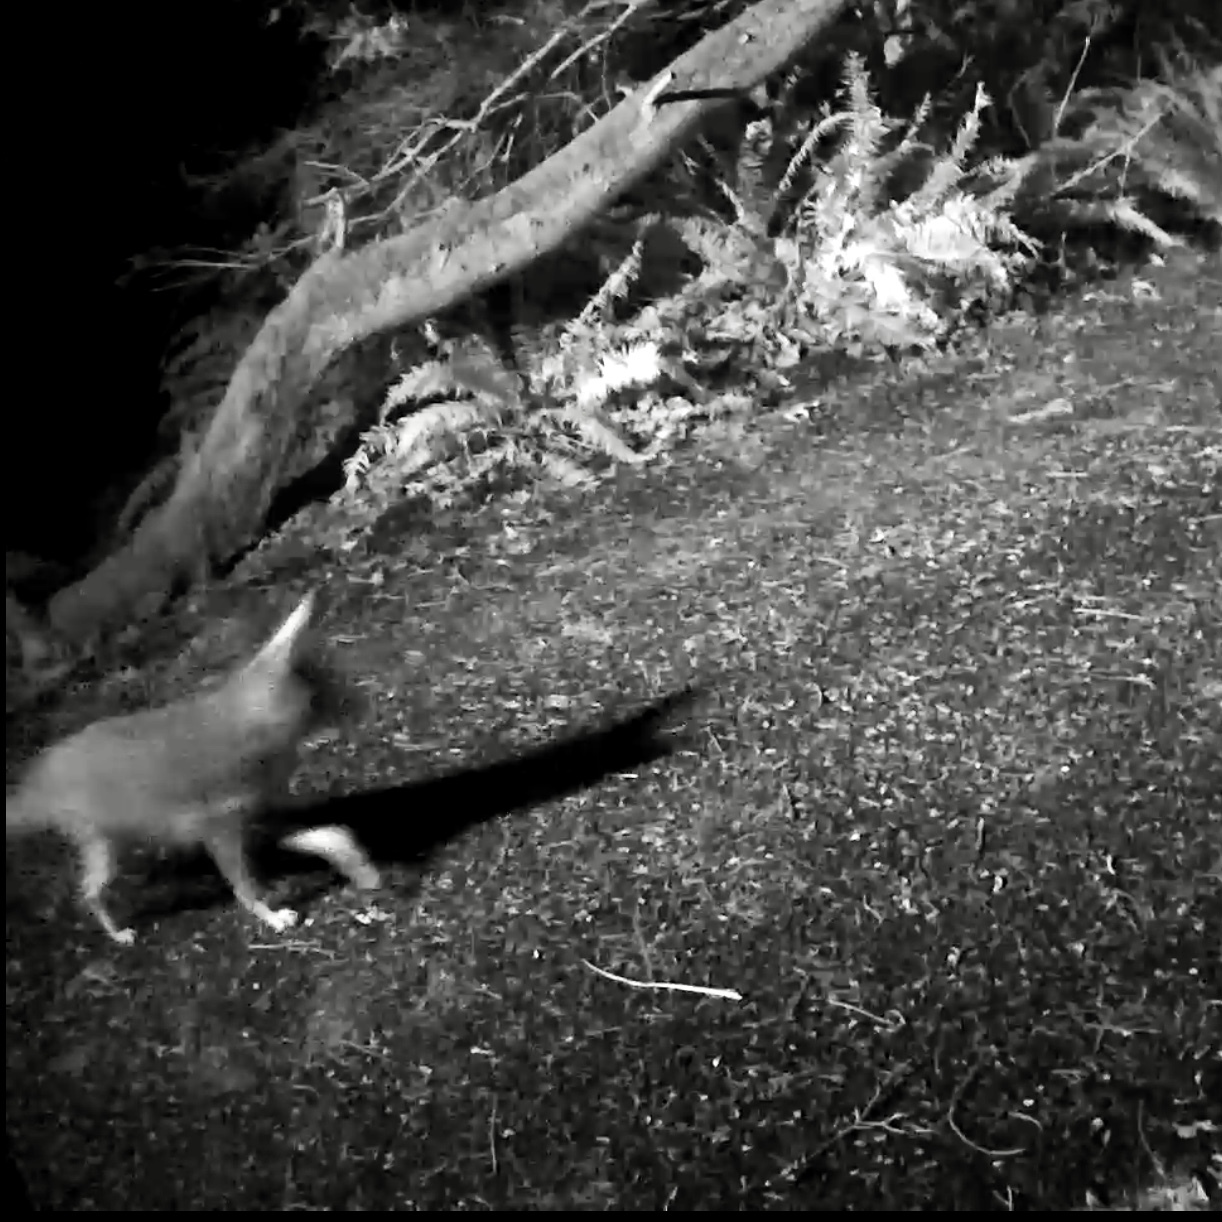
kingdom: Animalia
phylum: Chordata
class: Mammalia
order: Carnivora
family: Canidae
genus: Canis
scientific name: Canis latrans
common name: Coyote
